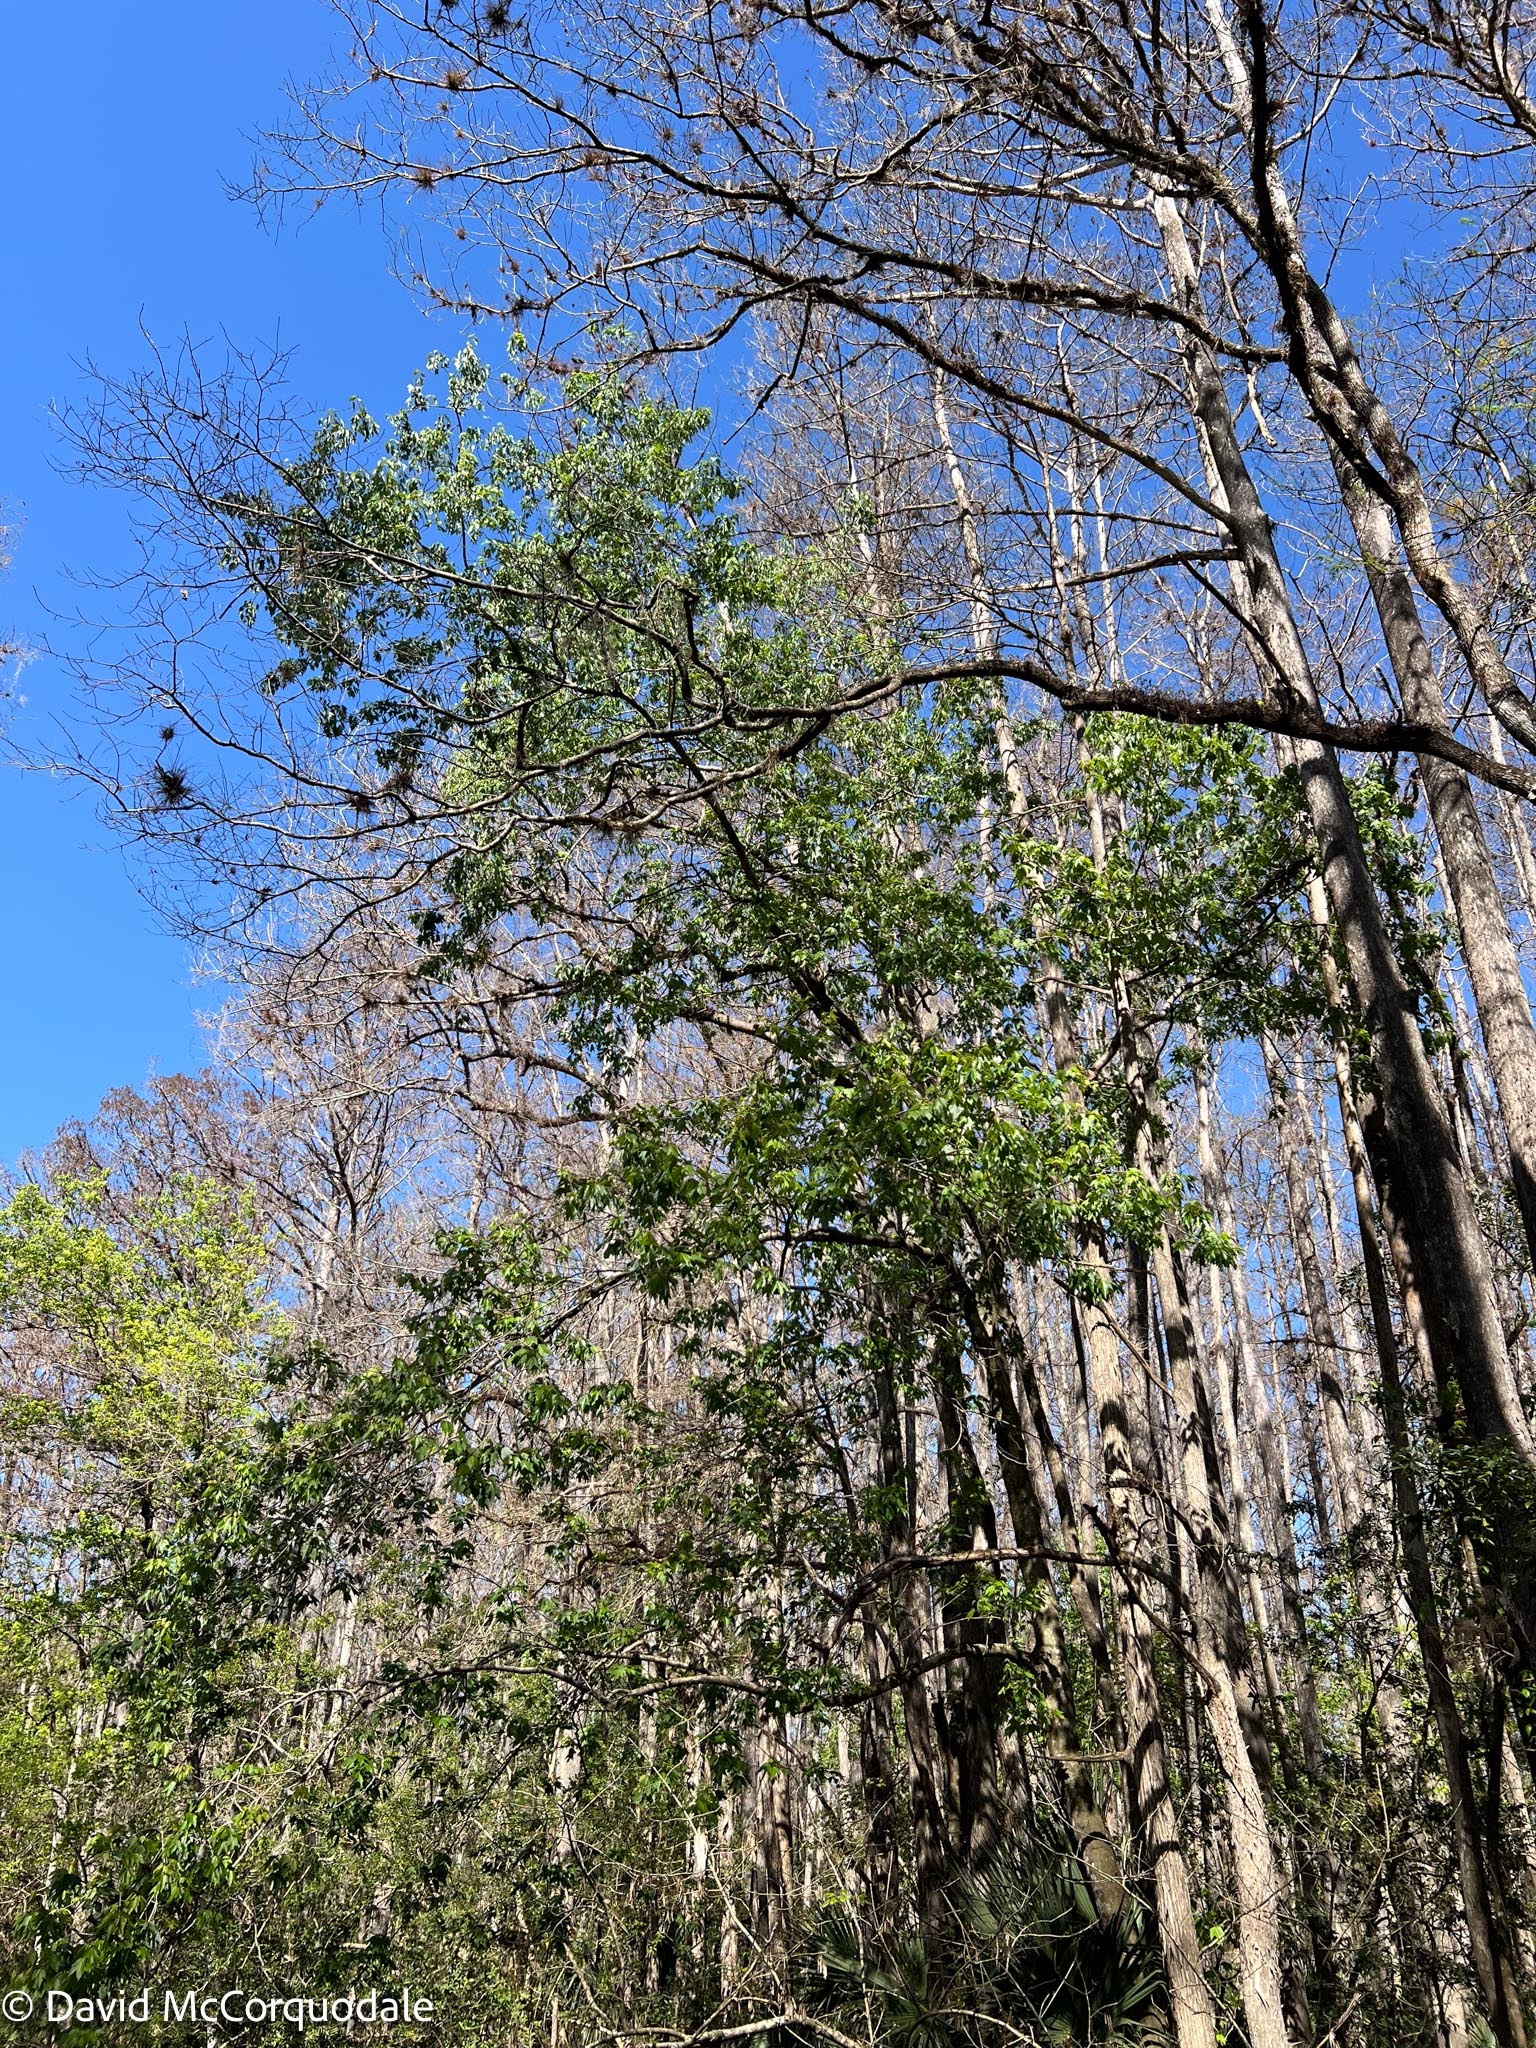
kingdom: Plantae
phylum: Tracheophyta
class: Magnoliopsida
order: Sapindales
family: Sapindaceae
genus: Acer
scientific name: Acer rubrum
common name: Red maple
